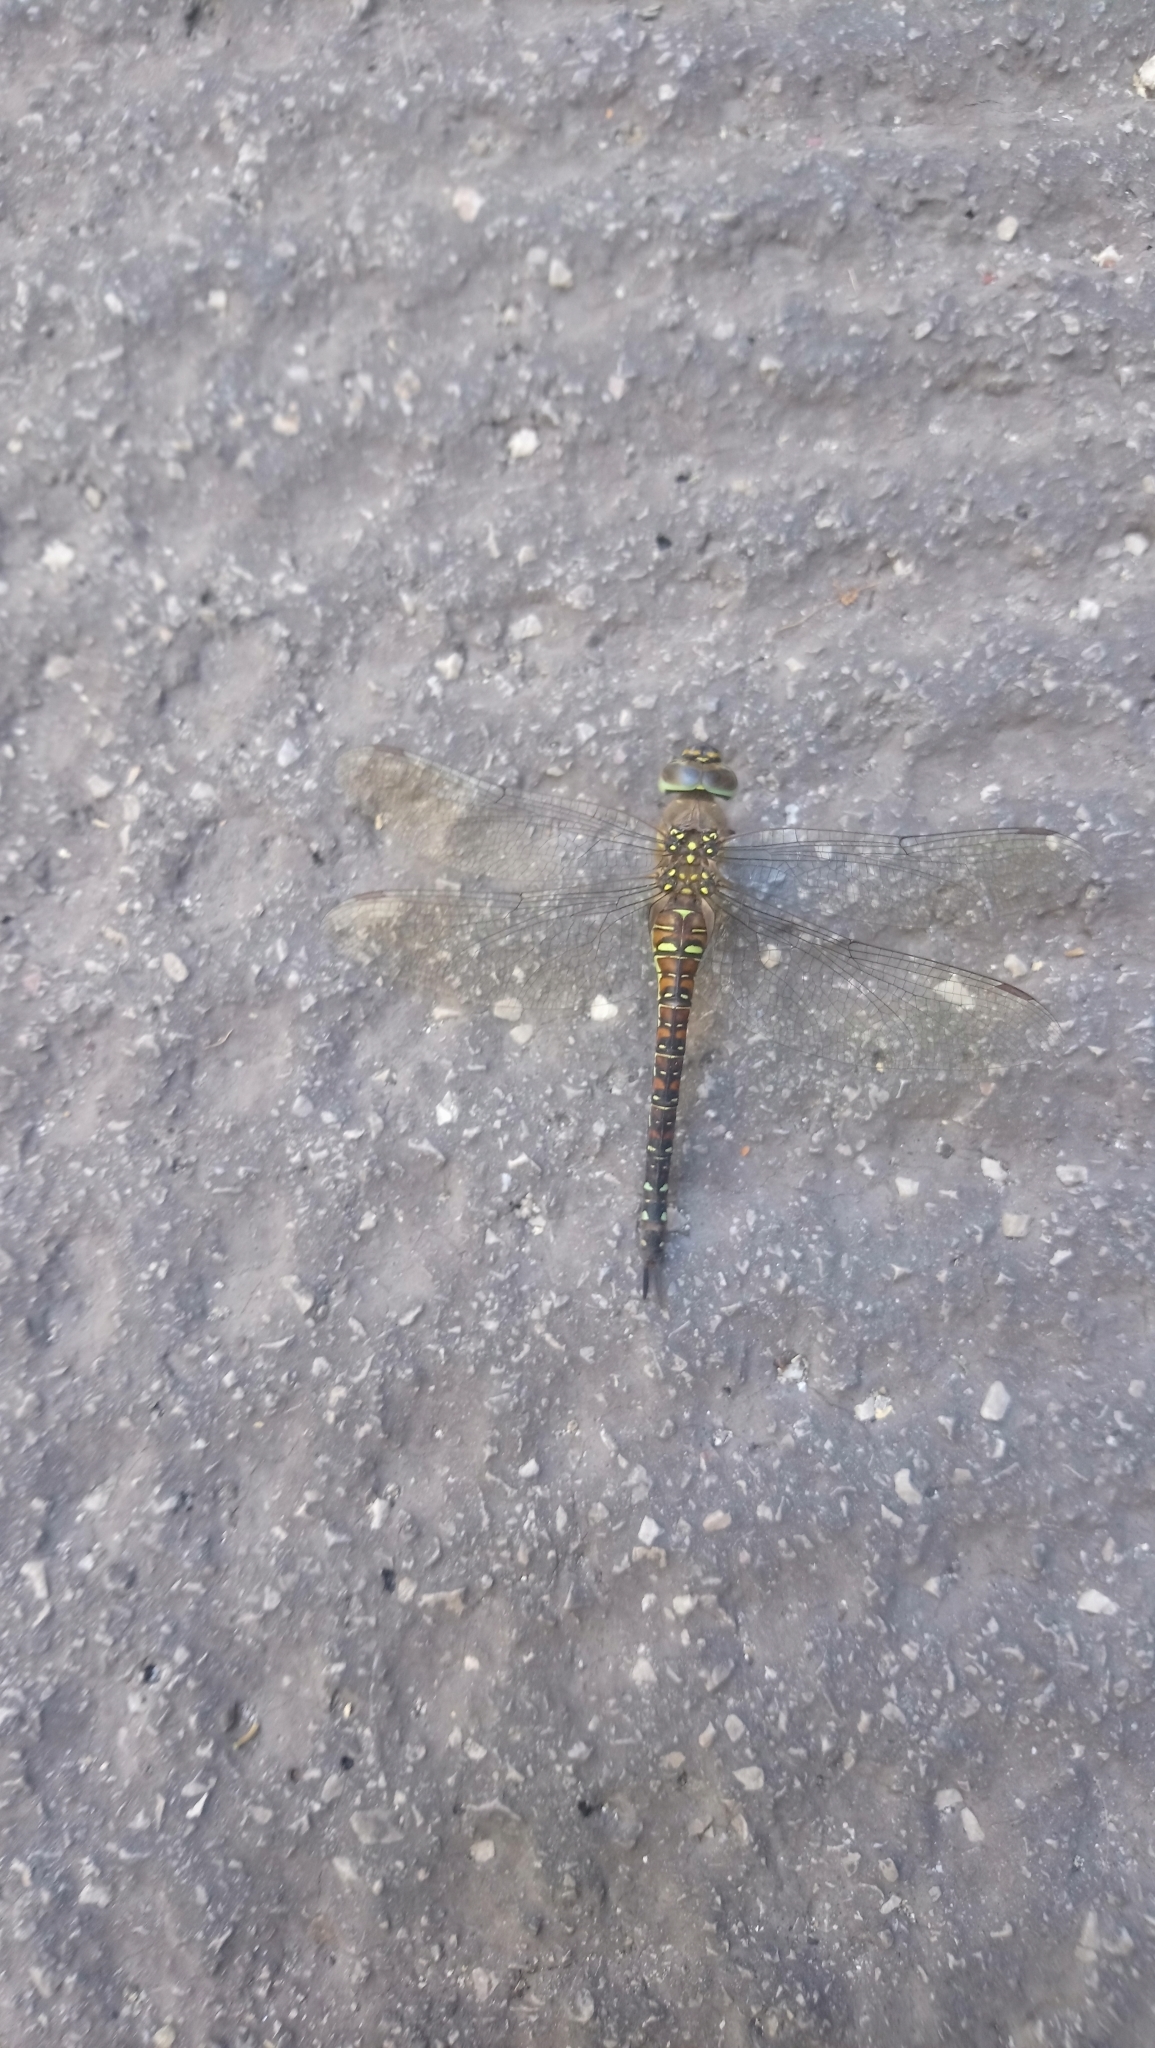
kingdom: Animalia
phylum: Arthropoda
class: Insecta
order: Odonata
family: Aeshnidae
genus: Aeshna
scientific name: Aeshna mixta
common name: Migrant hawker
